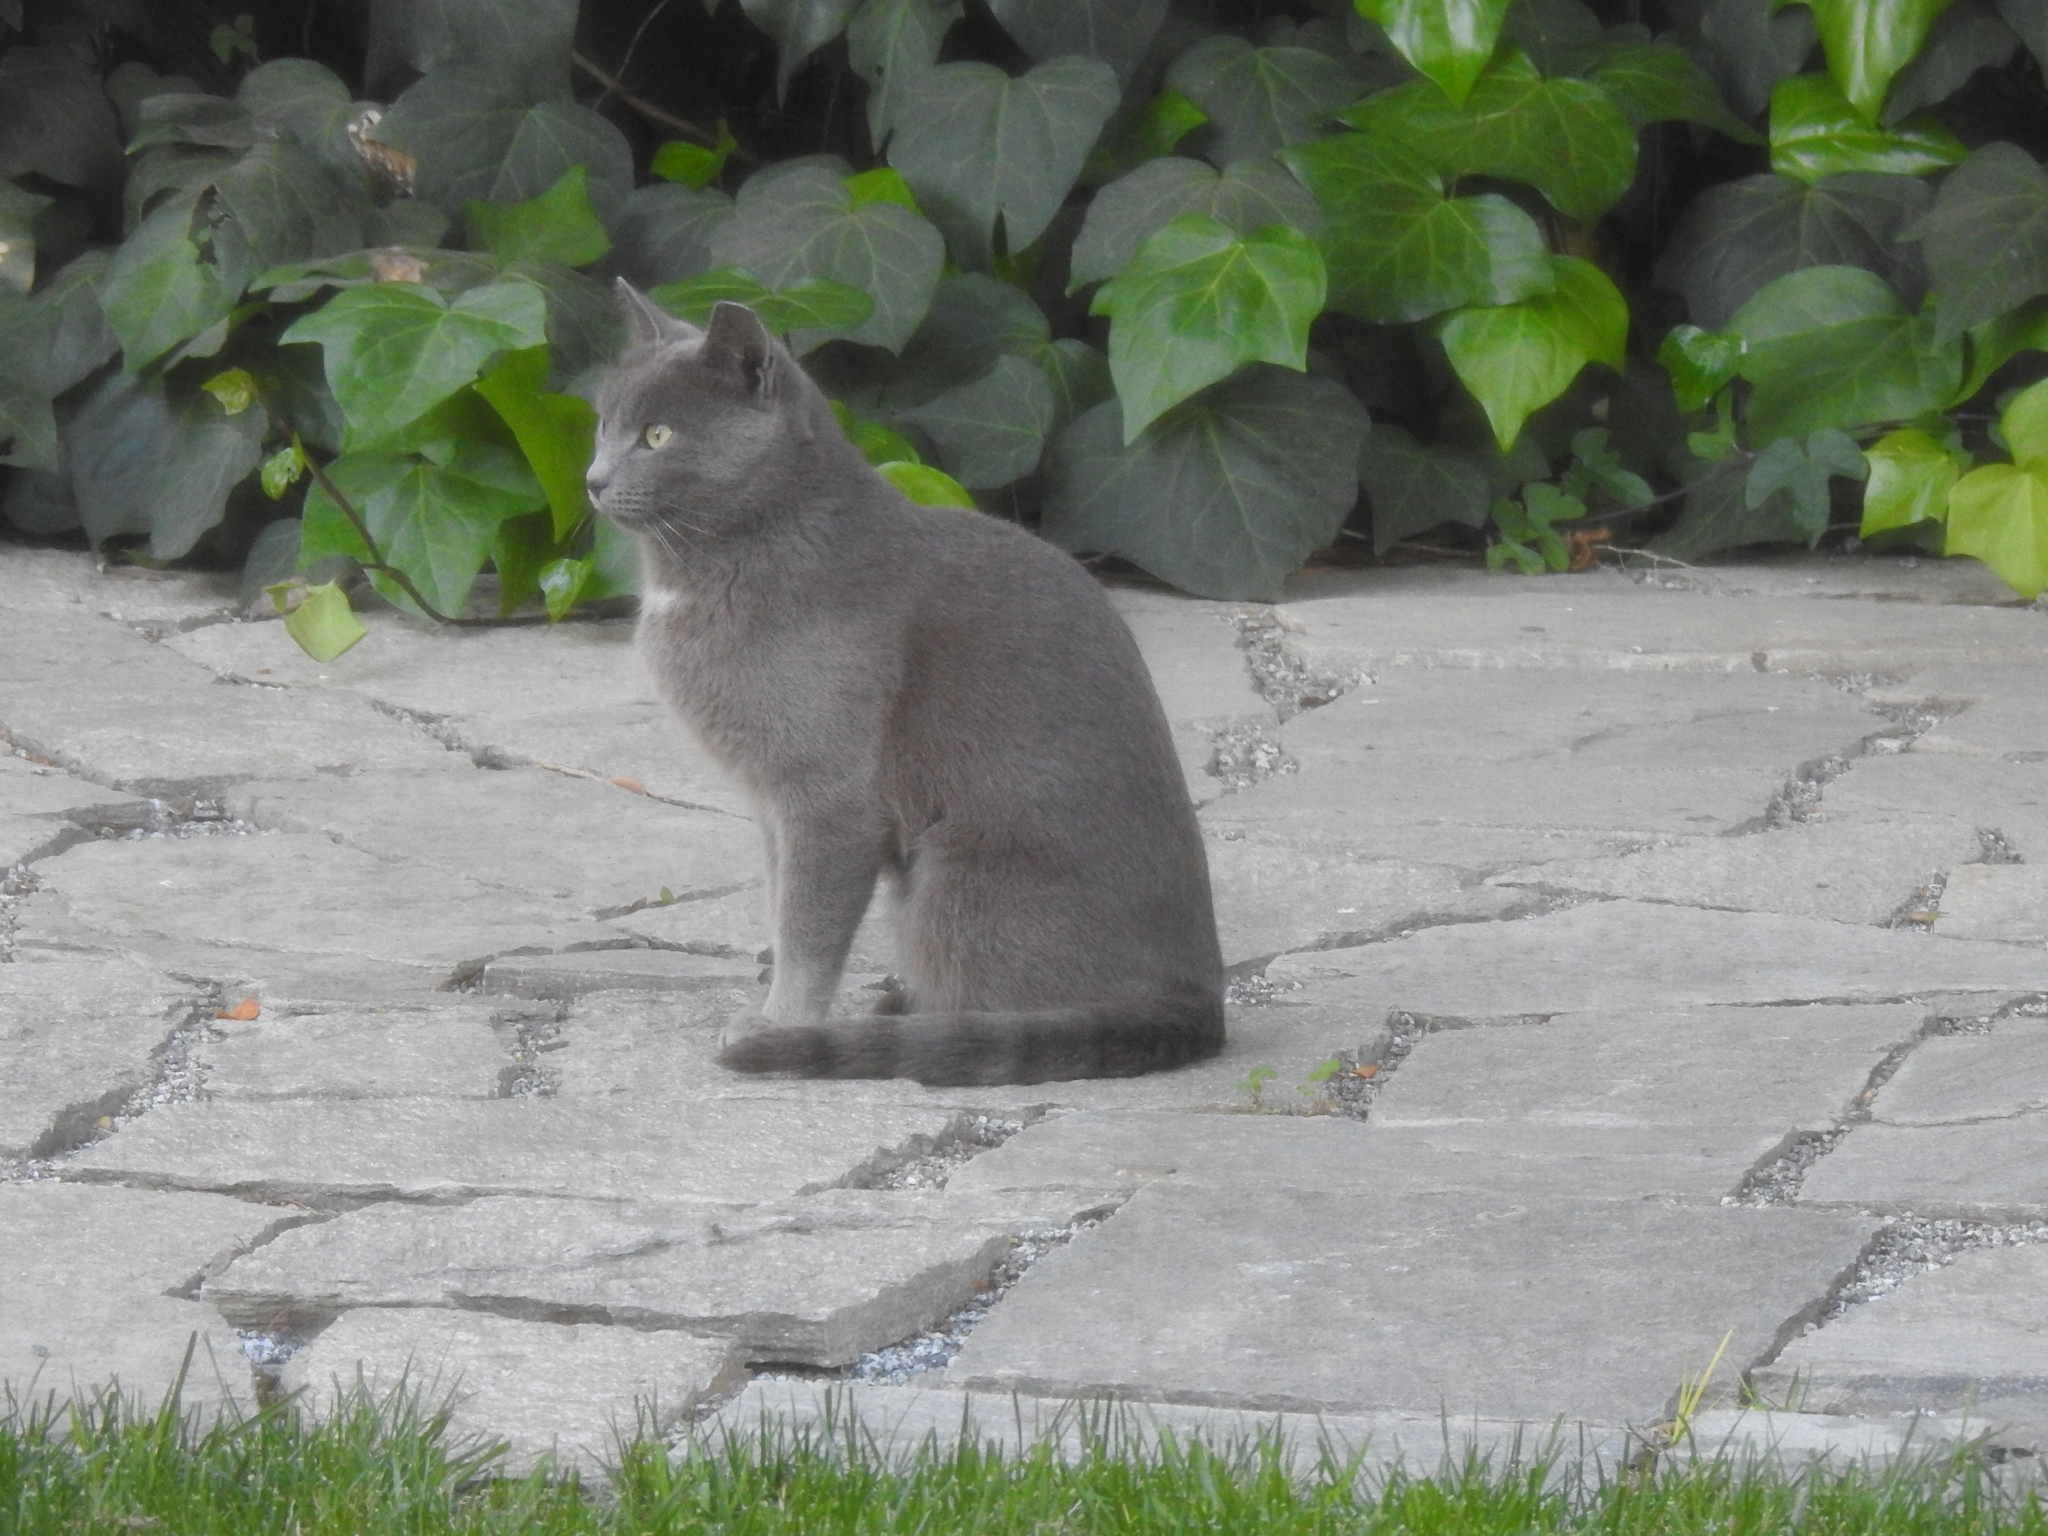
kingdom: Animalia
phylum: Chordata
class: Mammalia
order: Carnivora
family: Felidae
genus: Felis
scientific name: Felis catus
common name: Domestic cat
